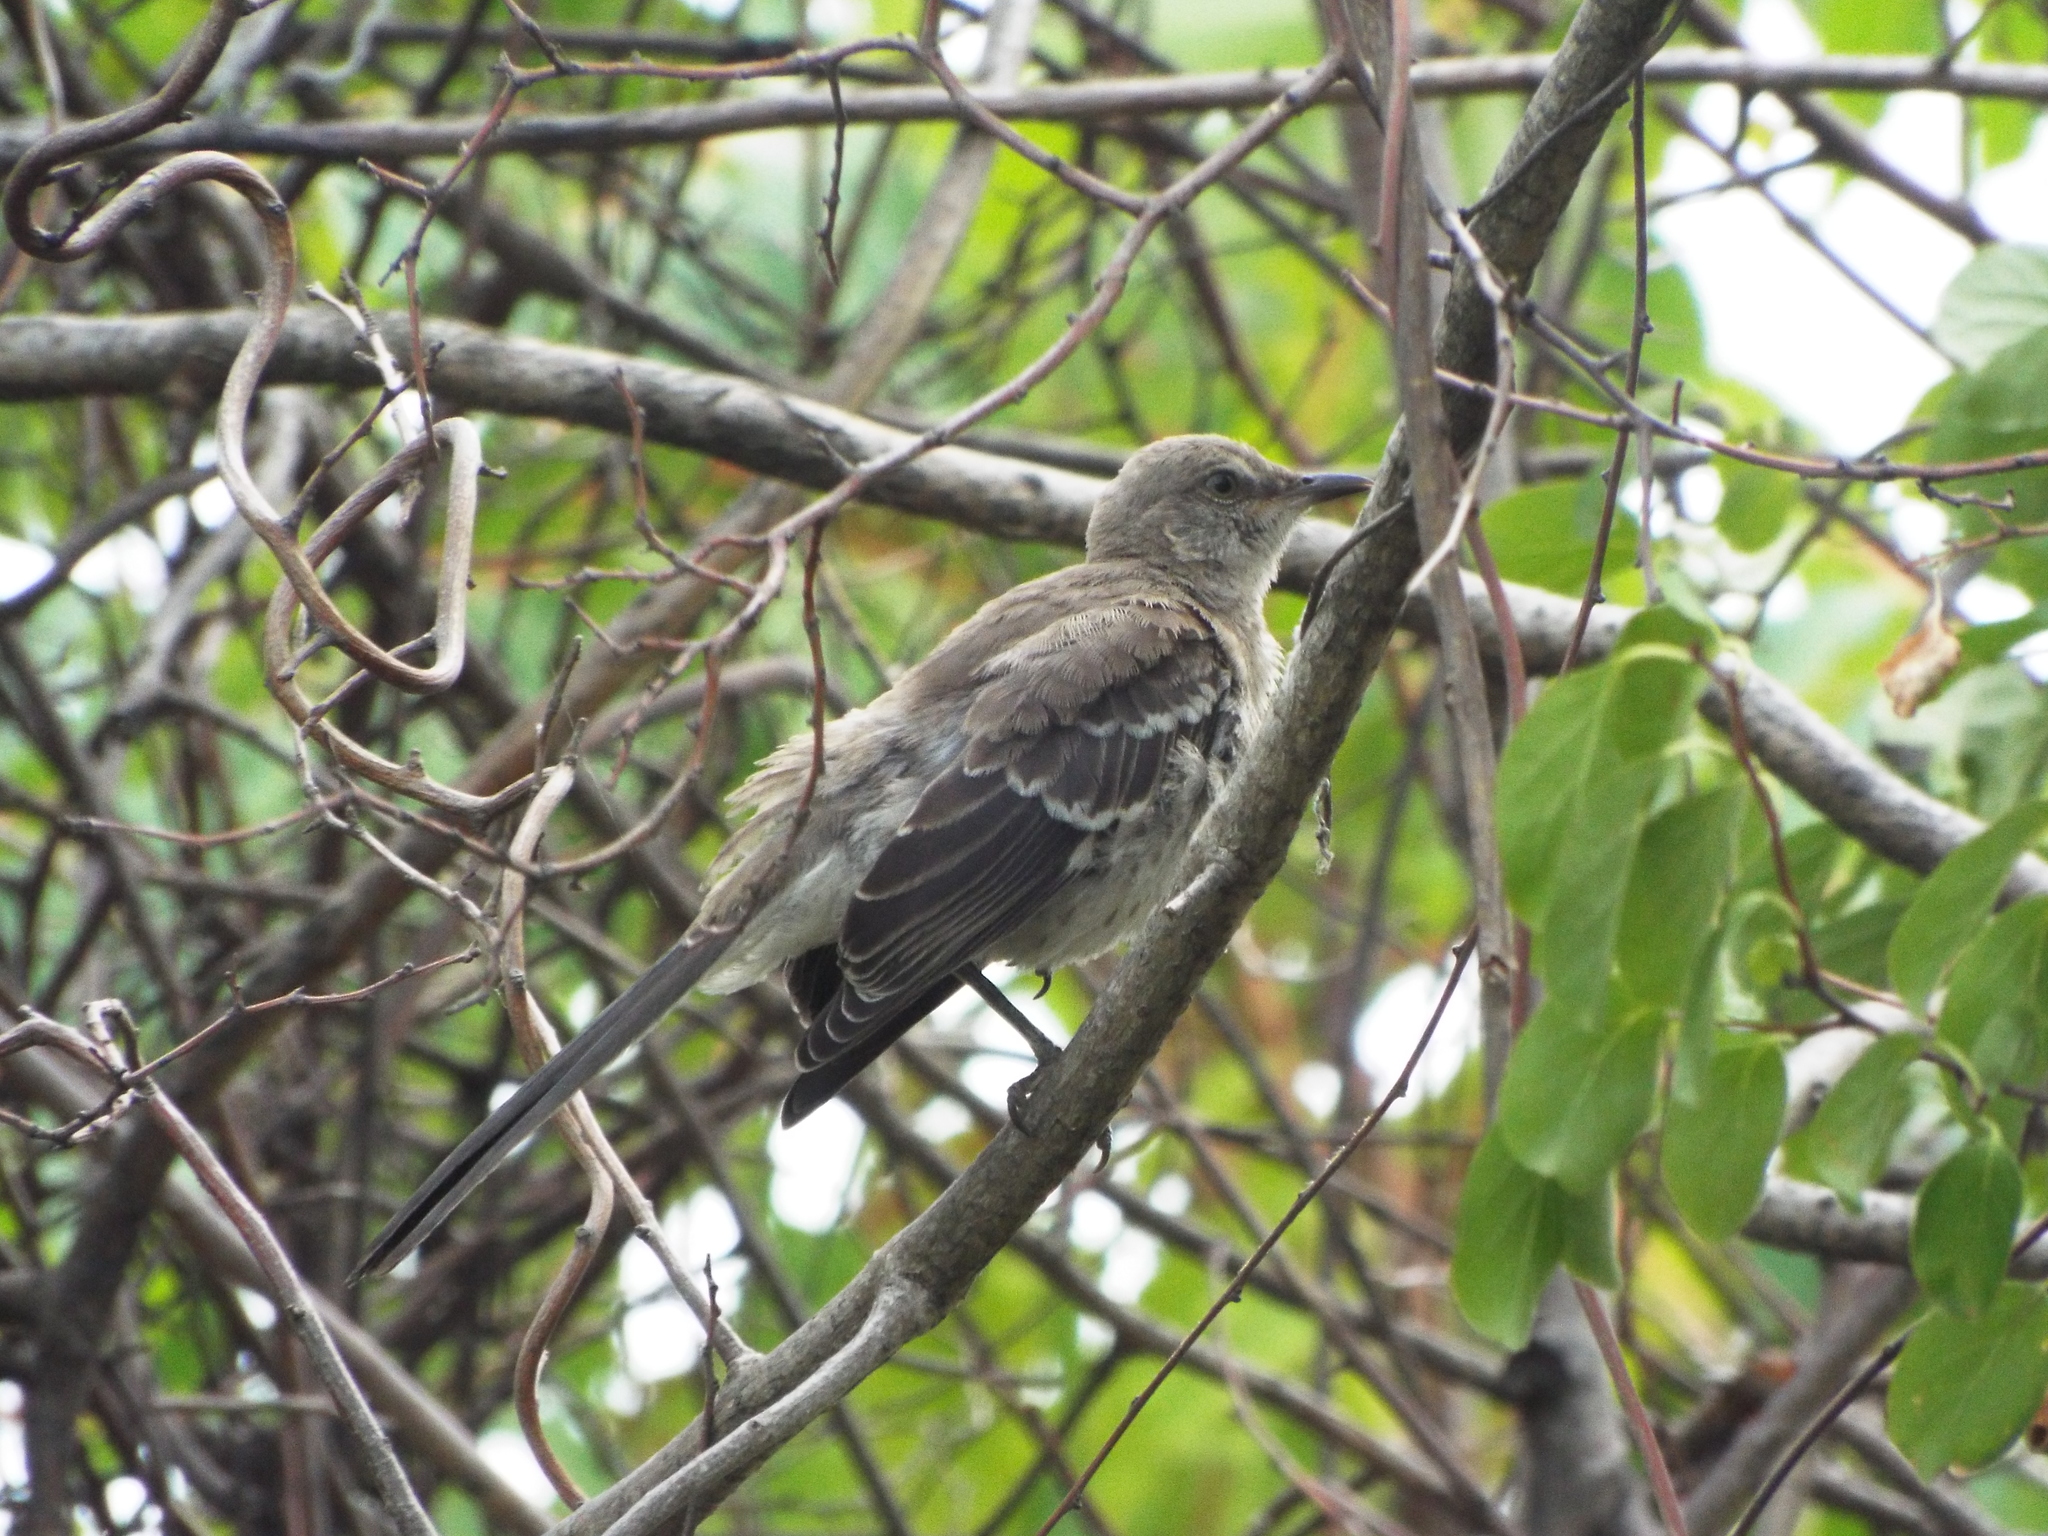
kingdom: Animalia
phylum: Chordata
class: Aves
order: Passeriformes
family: Mimidae
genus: Mimus
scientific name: Mimus polyglottos
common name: Northern mockingbird
